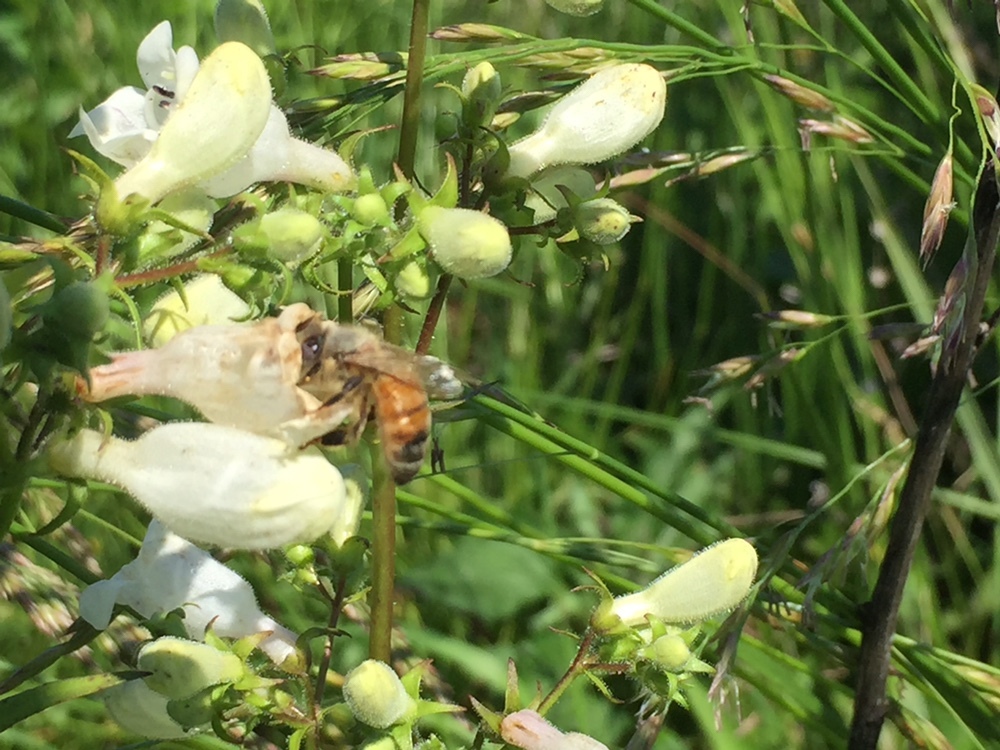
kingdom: Animalia
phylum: Arthropoda
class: Insecta
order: Hymenoptera
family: Apidae
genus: Apis
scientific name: Apis mellifera
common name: Honey bee
